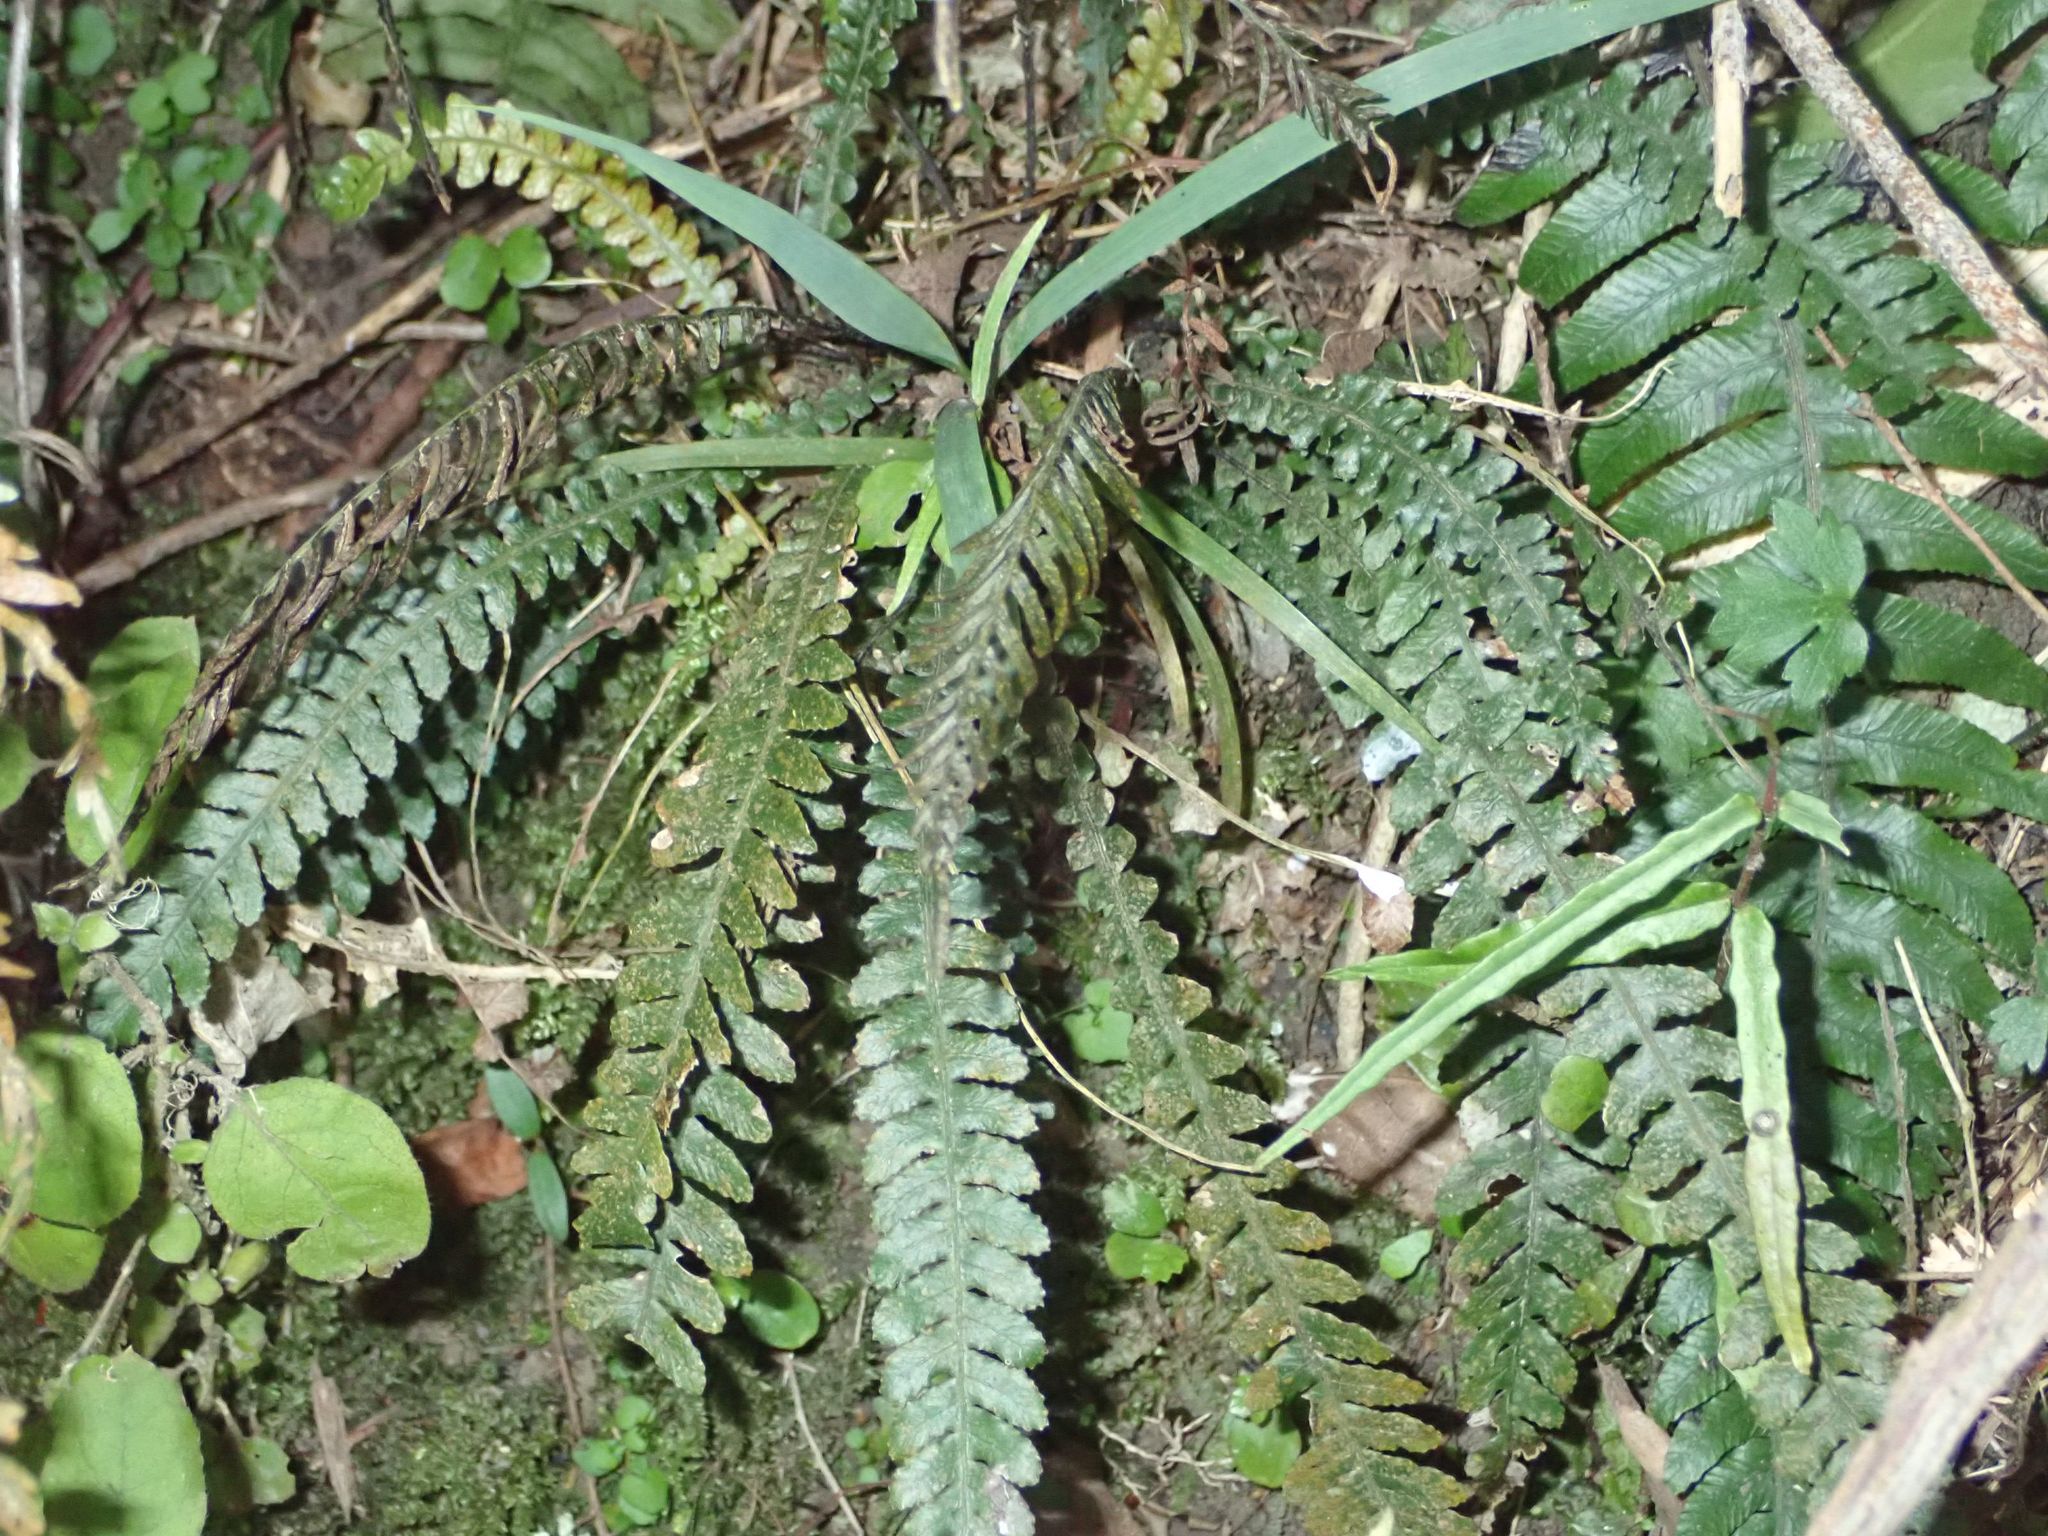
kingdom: Plantae
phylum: Tracheophyta
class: Polypodiopsida
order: Polypodiales
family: Blechnaceae
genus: Austroblechnum
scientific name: Austroblechnum membranaceum
